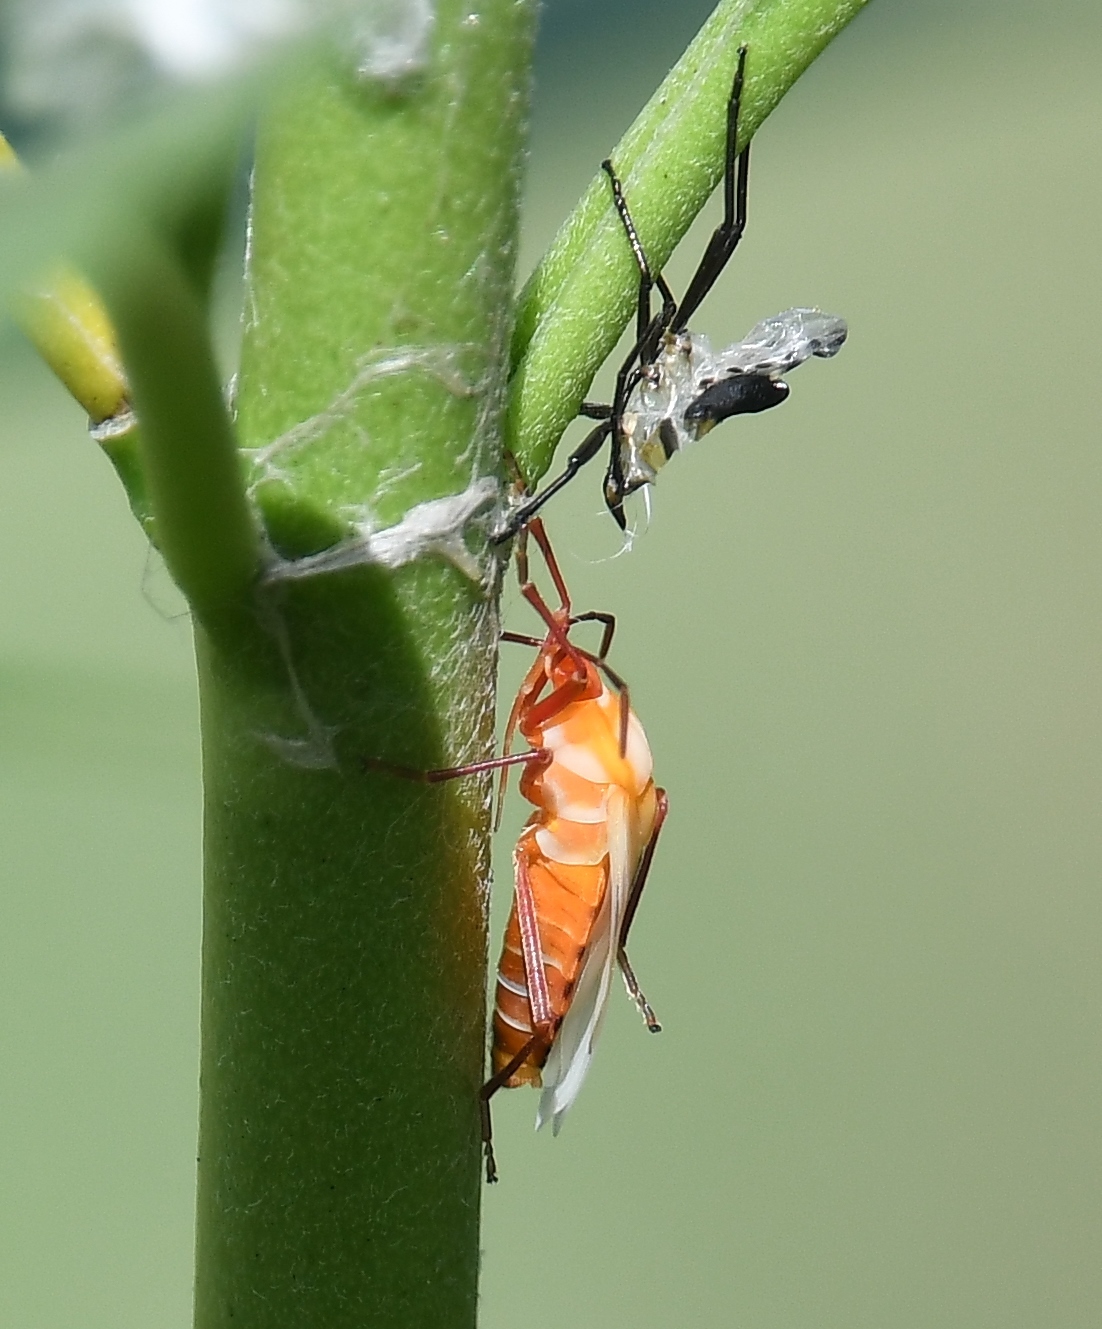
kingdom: Animalia
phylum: Arthropoda
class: Insecta
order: Hemiptera
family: Lygaeidae
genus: Oncopeltus
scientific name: Oncopeltus fasciatus
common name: Large milkweed bug
